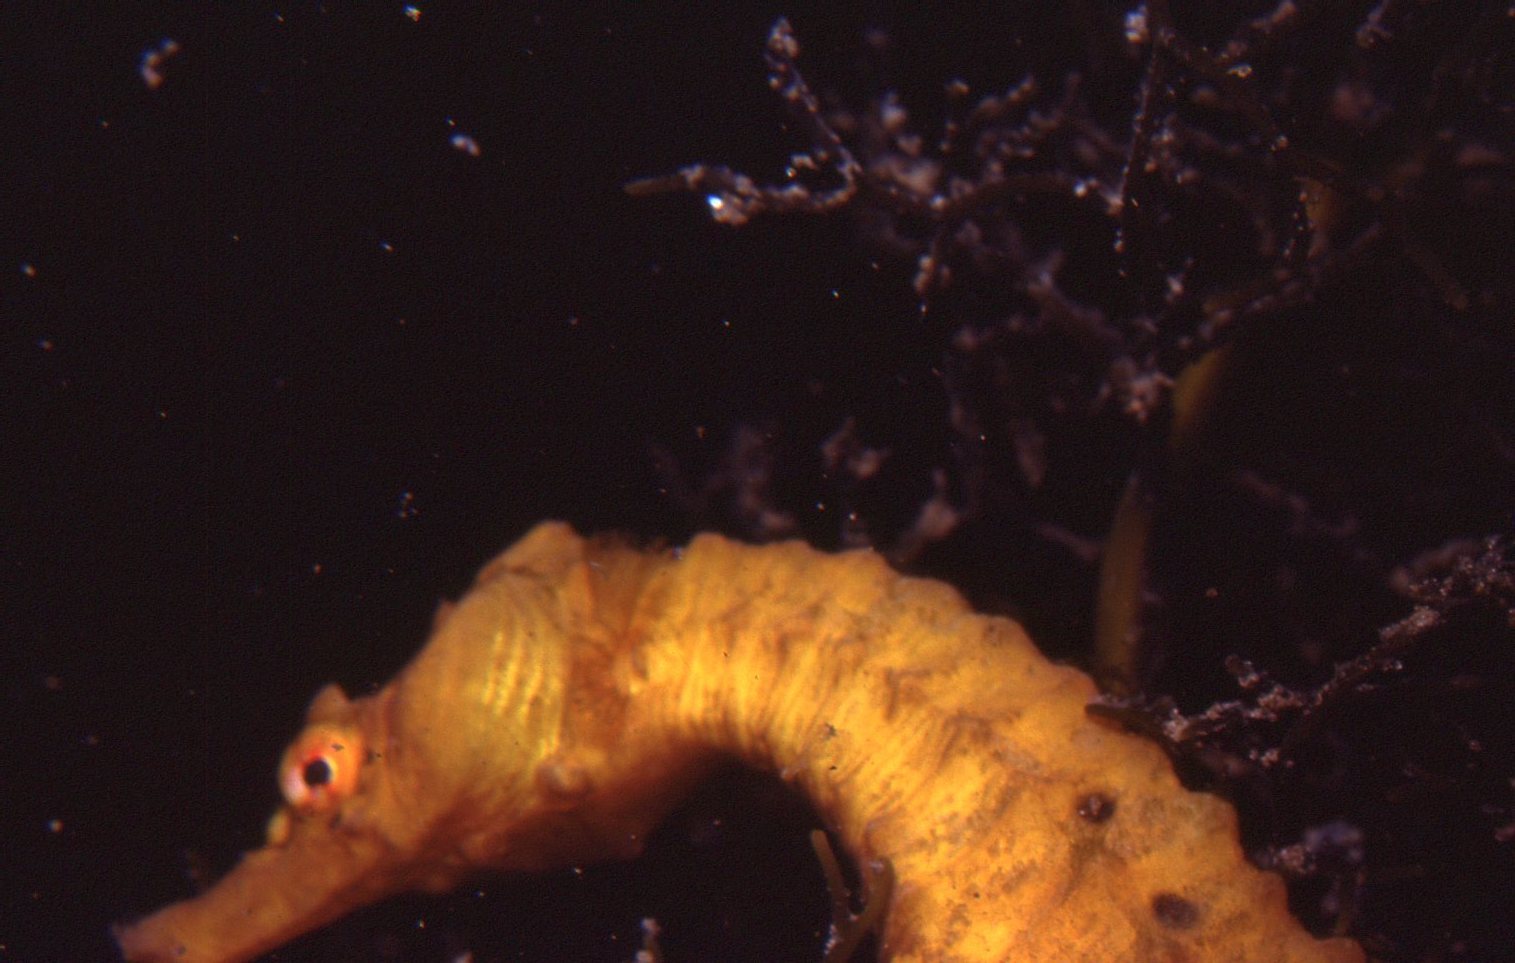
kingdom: Animalia
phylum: Chordata
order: Syngnathiformes
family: Syngnathidae
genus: Hippocampus
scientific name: Hippocampus abdominalis
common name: Big-belly seahorse
